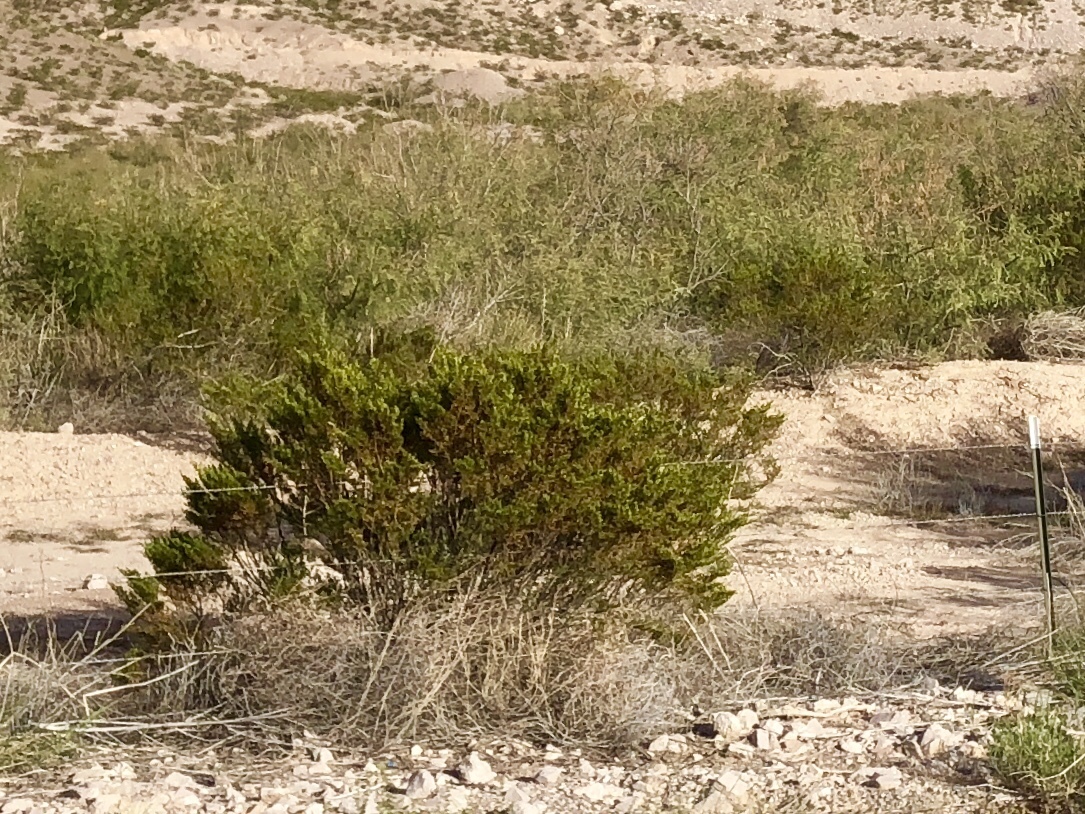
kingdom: Plantae
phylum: Tracheophyta
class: Magnoliopsida
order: Zygophyllales
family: Zygophyllaceae
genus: Larrea
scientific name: Larrea tridentata
